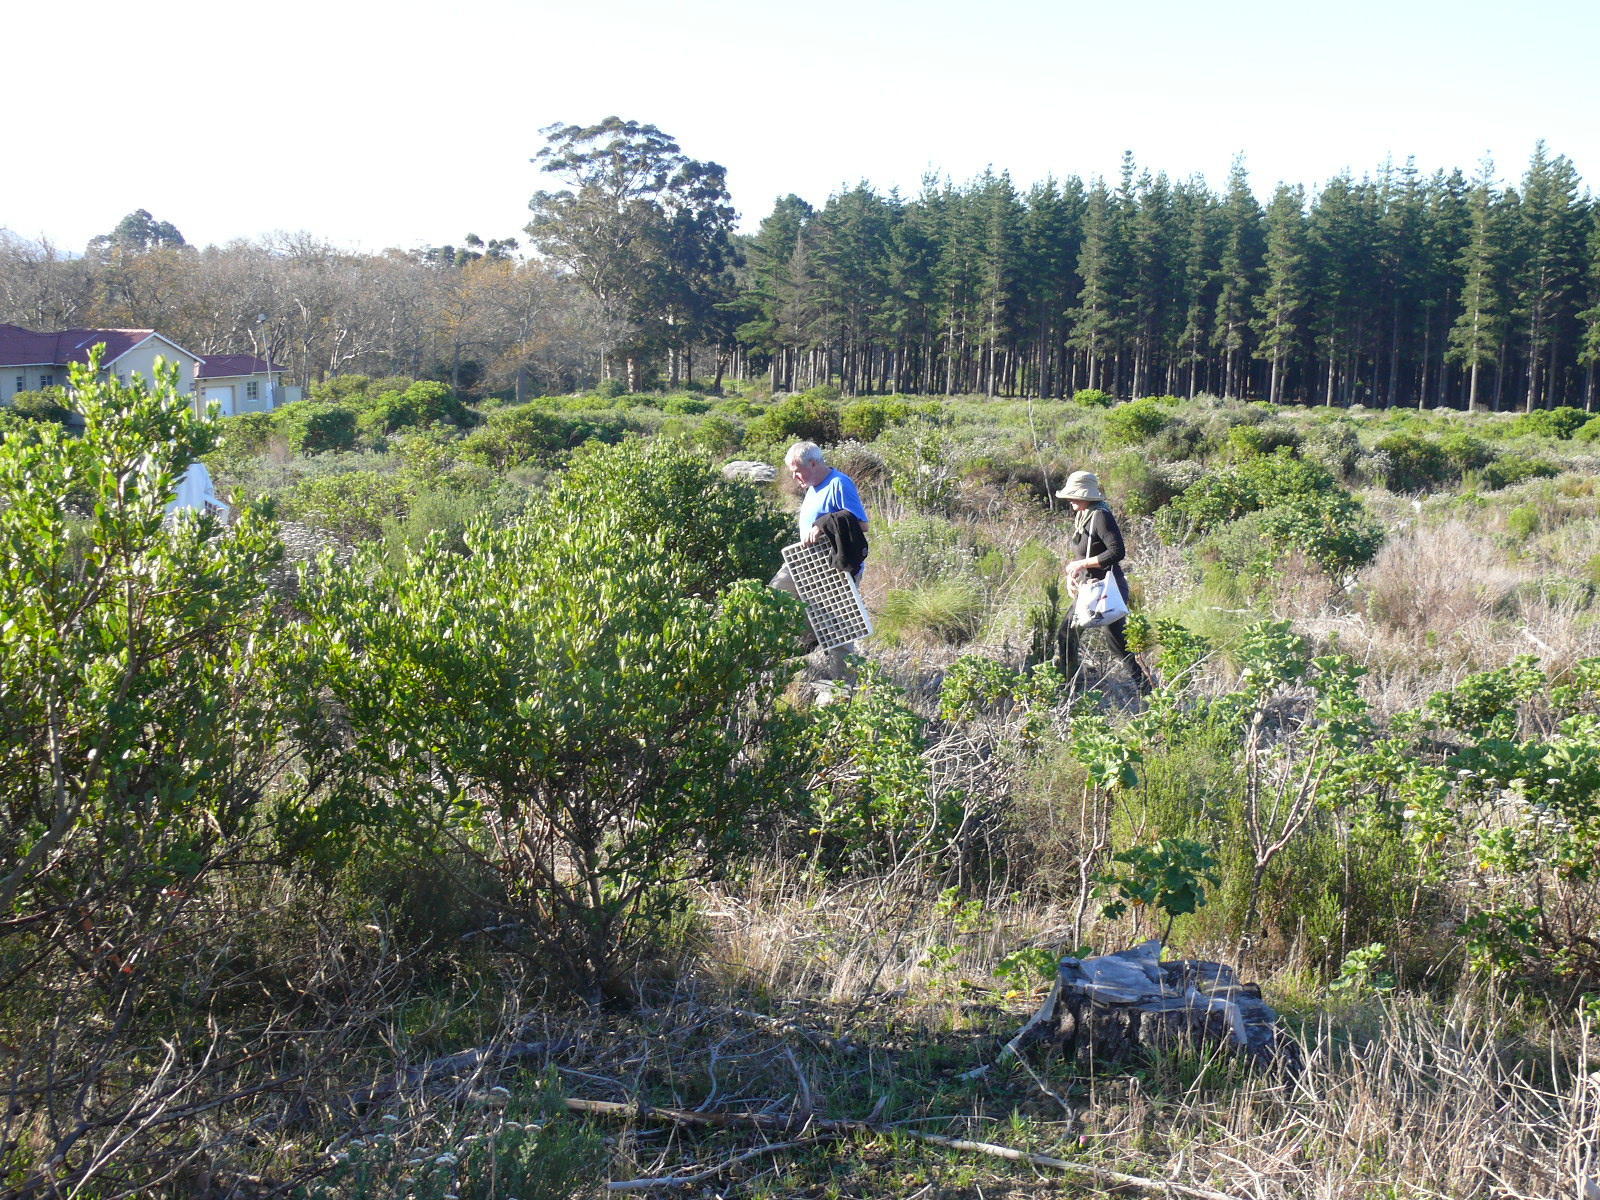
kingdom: Plantae
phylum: Tracheophyta
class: Magnoliopsida
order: Asterales
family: Asteraceae
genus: Osteospermum
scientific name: Osteospermum moniliferum
